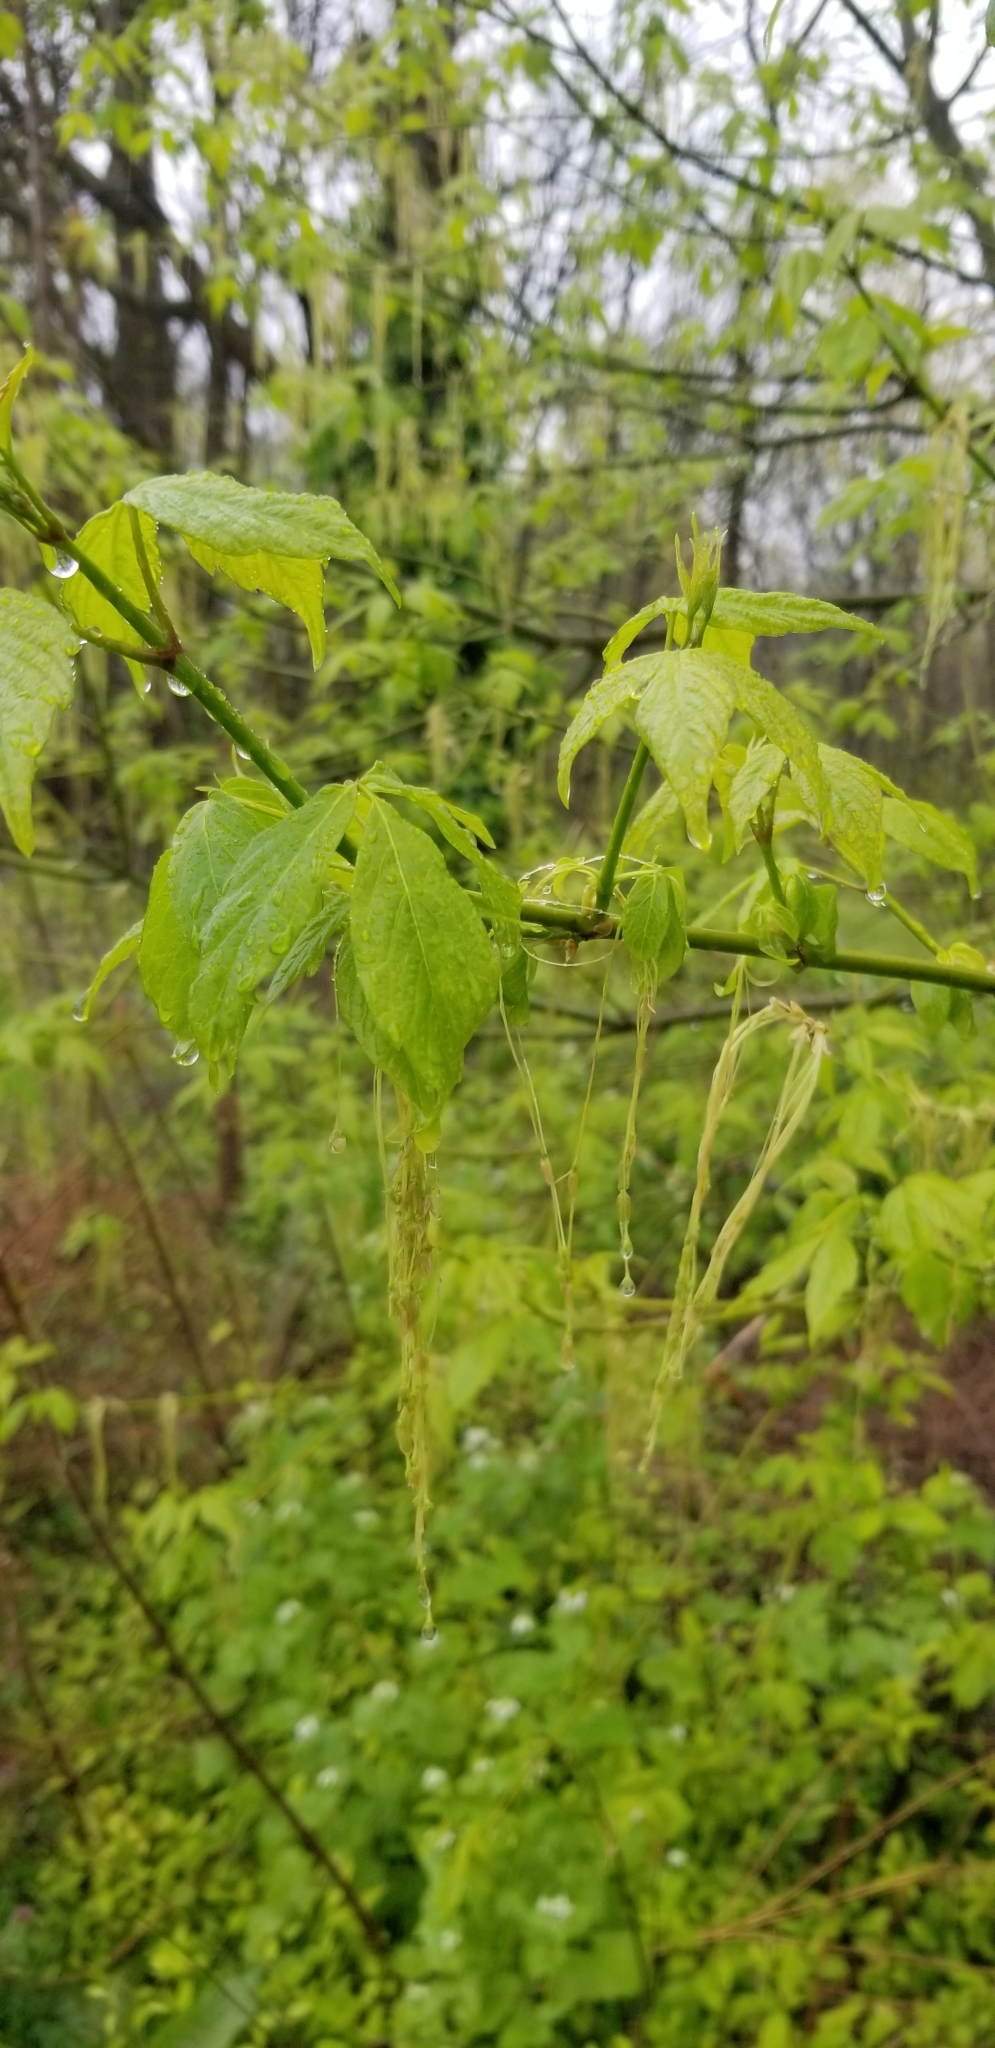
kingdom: Plantae
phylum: Tracheophyta
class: Magnoliopsida
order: Sapindales
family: Sapindaceae
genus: Acer
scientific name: Acer negundo
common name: Ashleaf maple
